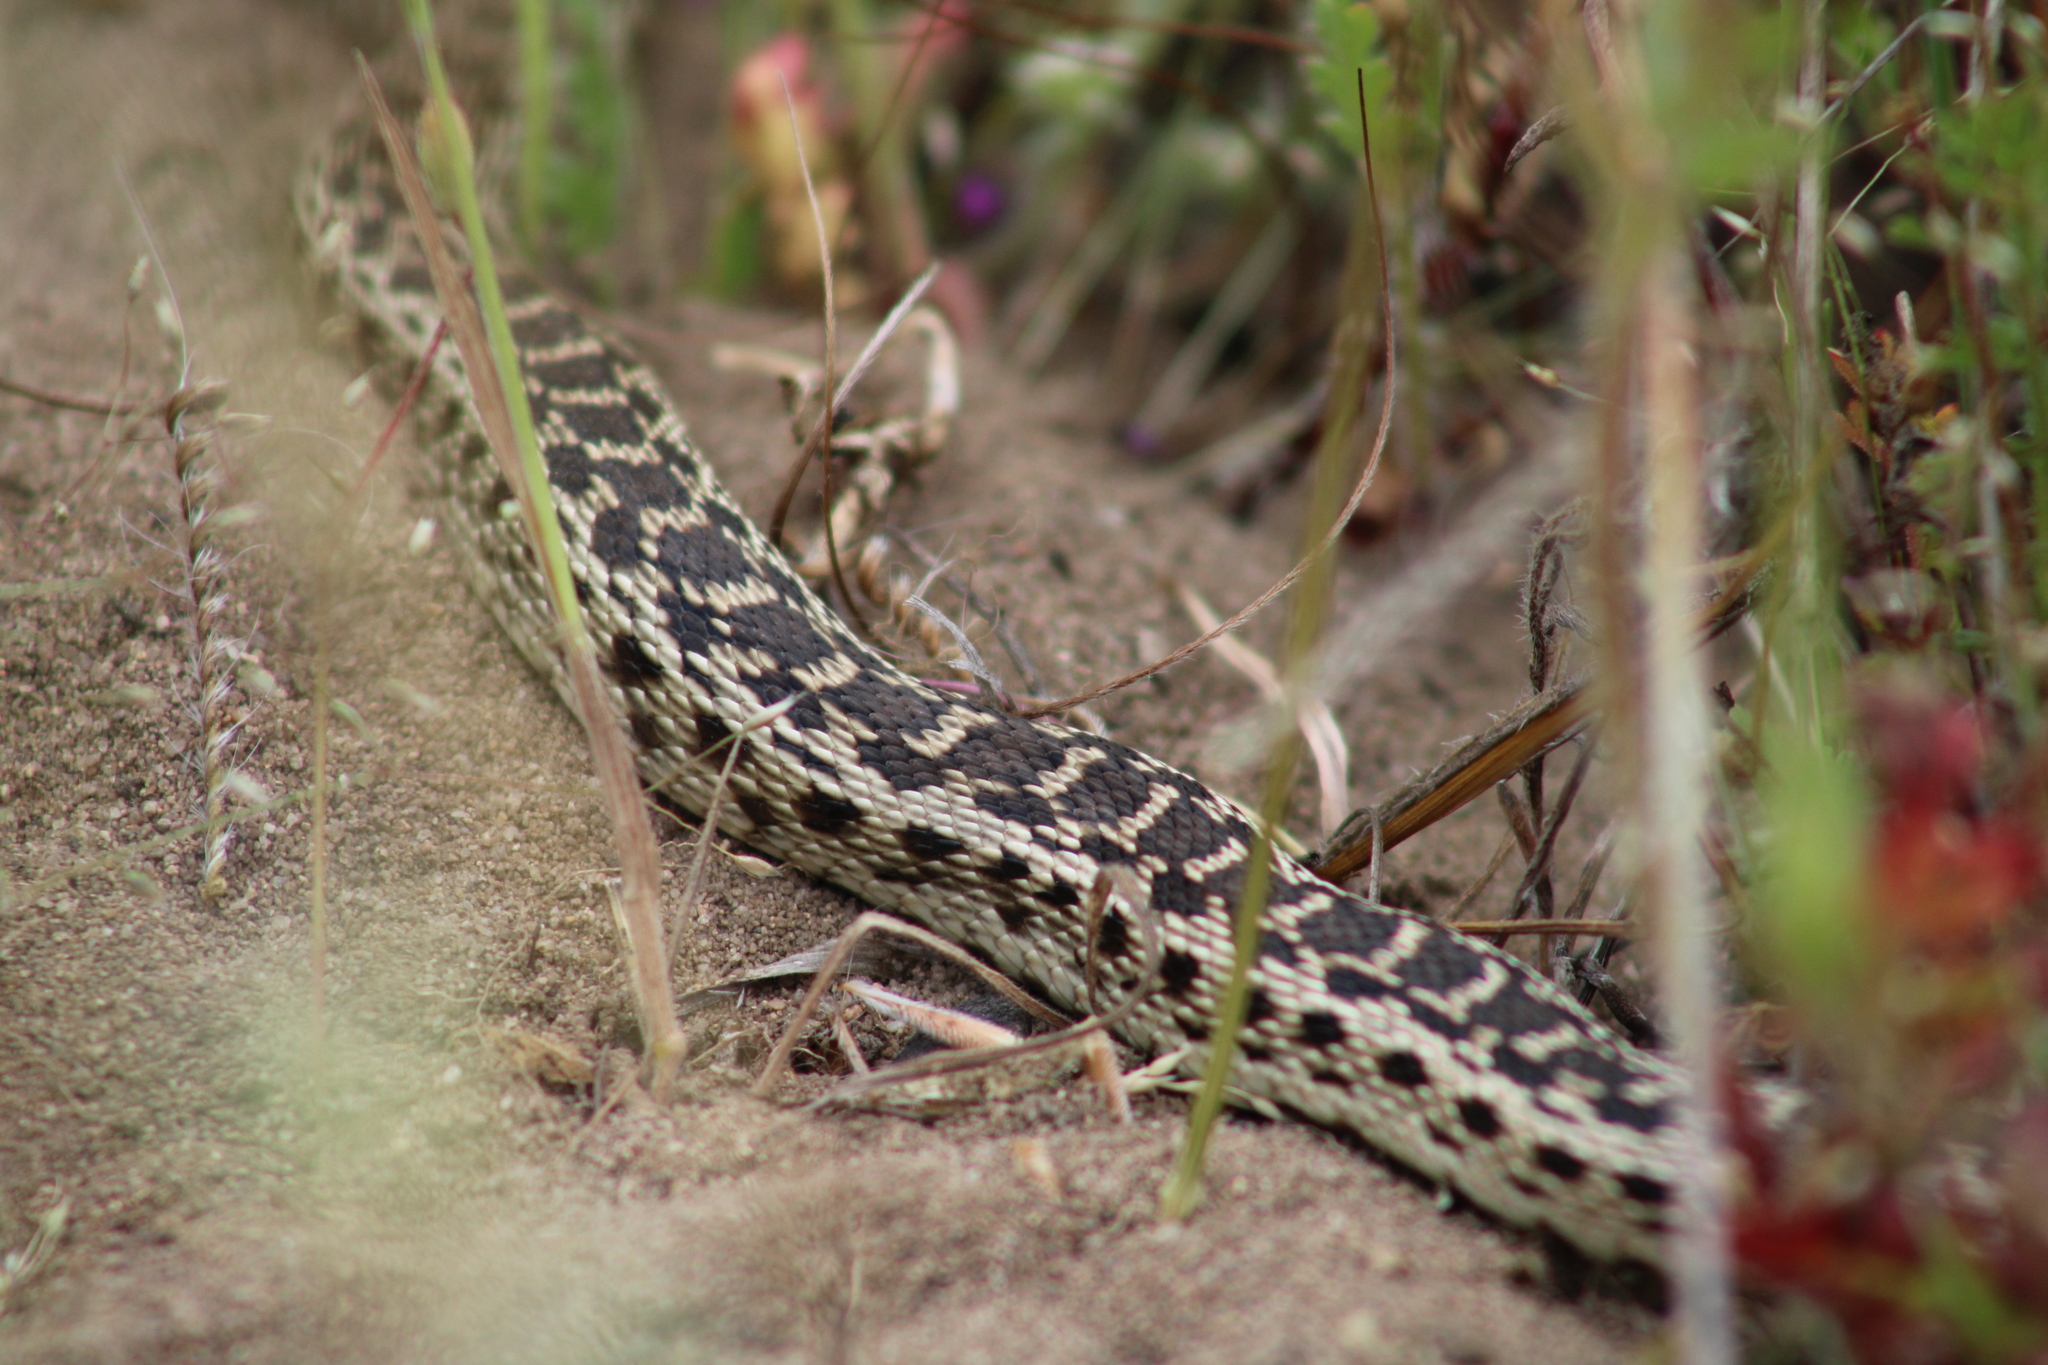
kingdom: Animalia
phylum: Chordata
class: Squamata
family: Colubridae
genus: Pituophis
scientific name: Pituophis catenifer
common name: Gopher snake
